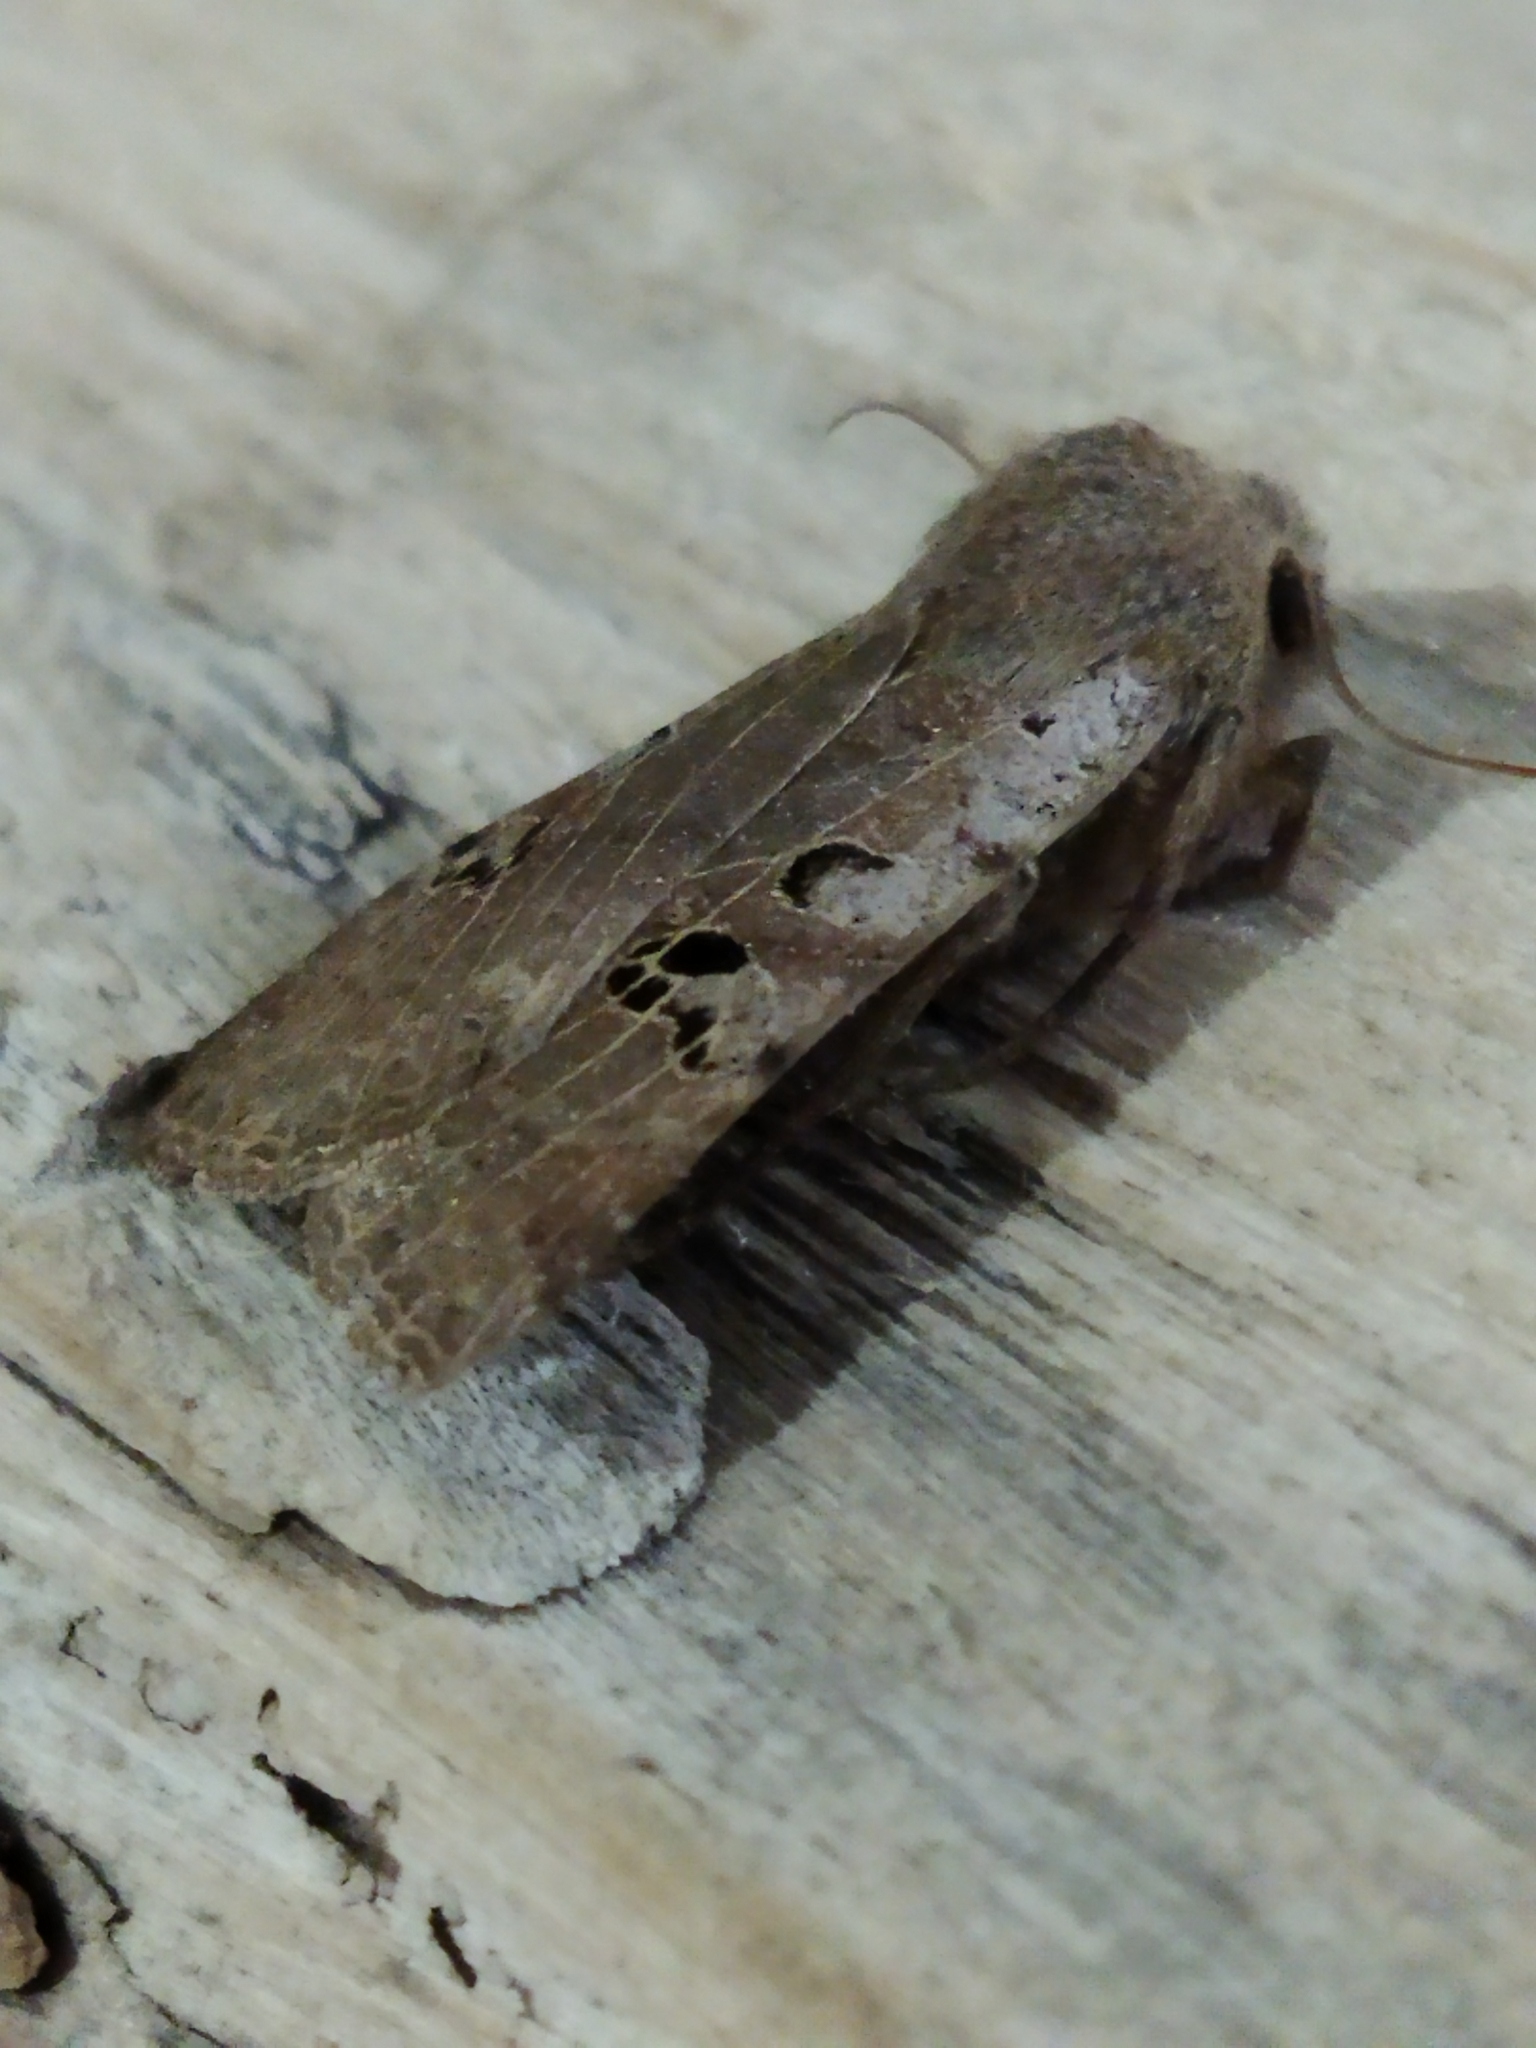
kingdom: Animalia
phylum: Arthropoda
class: Insecta
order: Lepidoptera
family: Noctuidae
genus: Conistra
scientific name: Conistra rubiginosa
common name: Black-spotted chestnut
